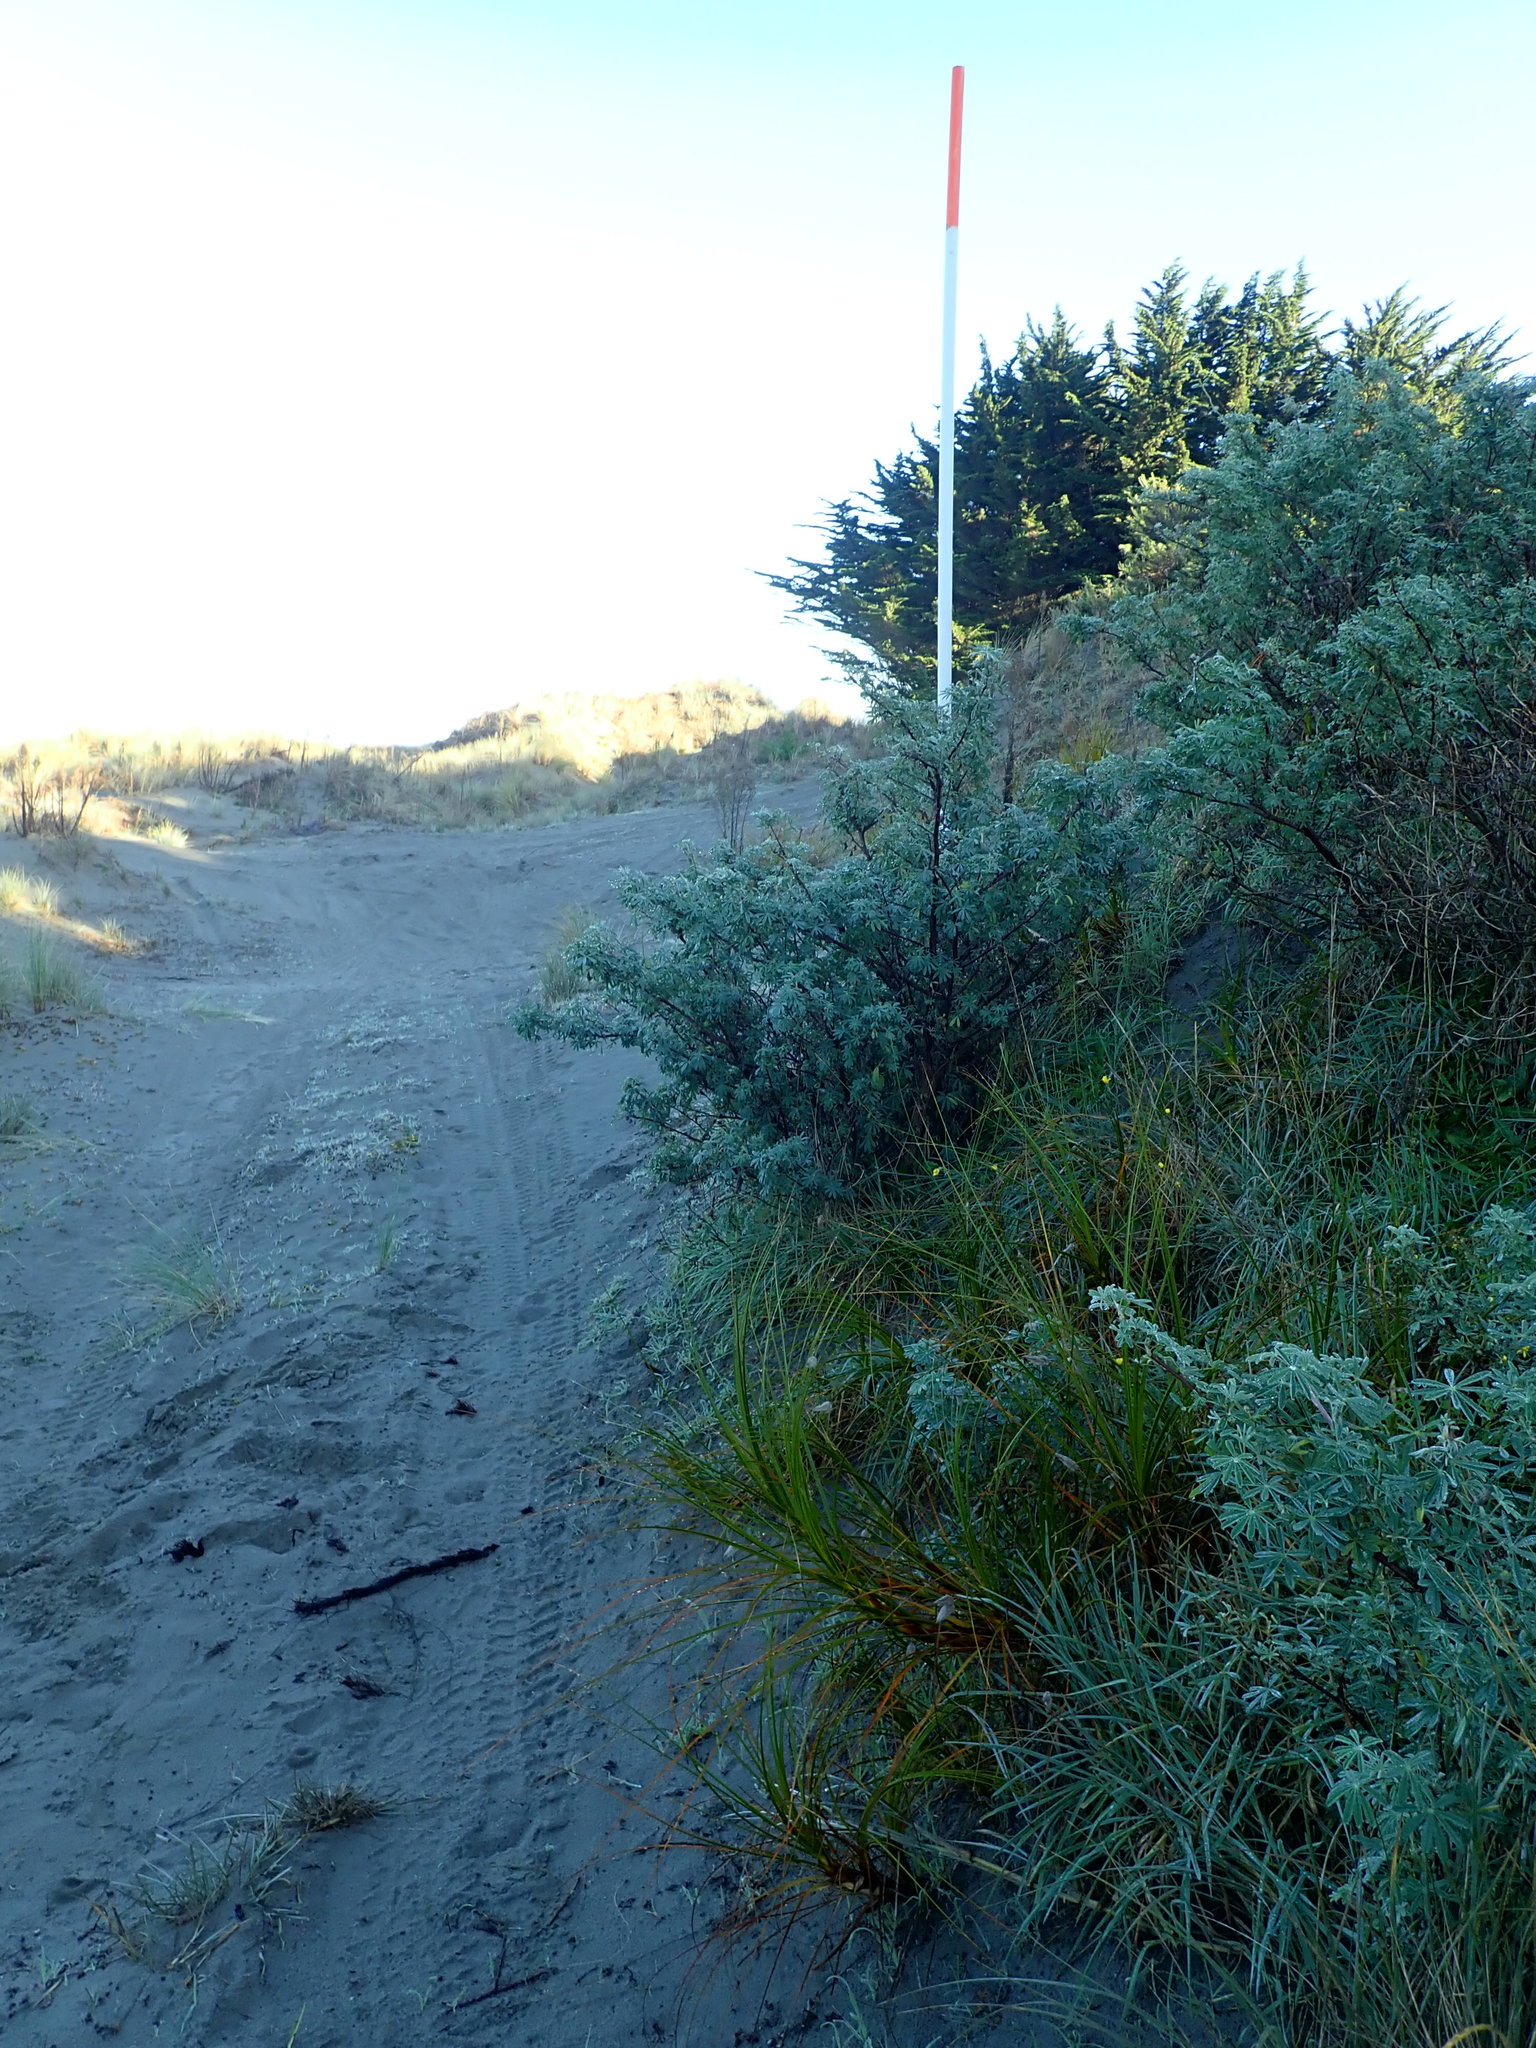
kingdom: Plantae
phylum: Tracheophyta
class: Liliopsida
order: Poales
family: Cyperaceae
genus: Ficinia
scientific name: Ficinia spiralis
